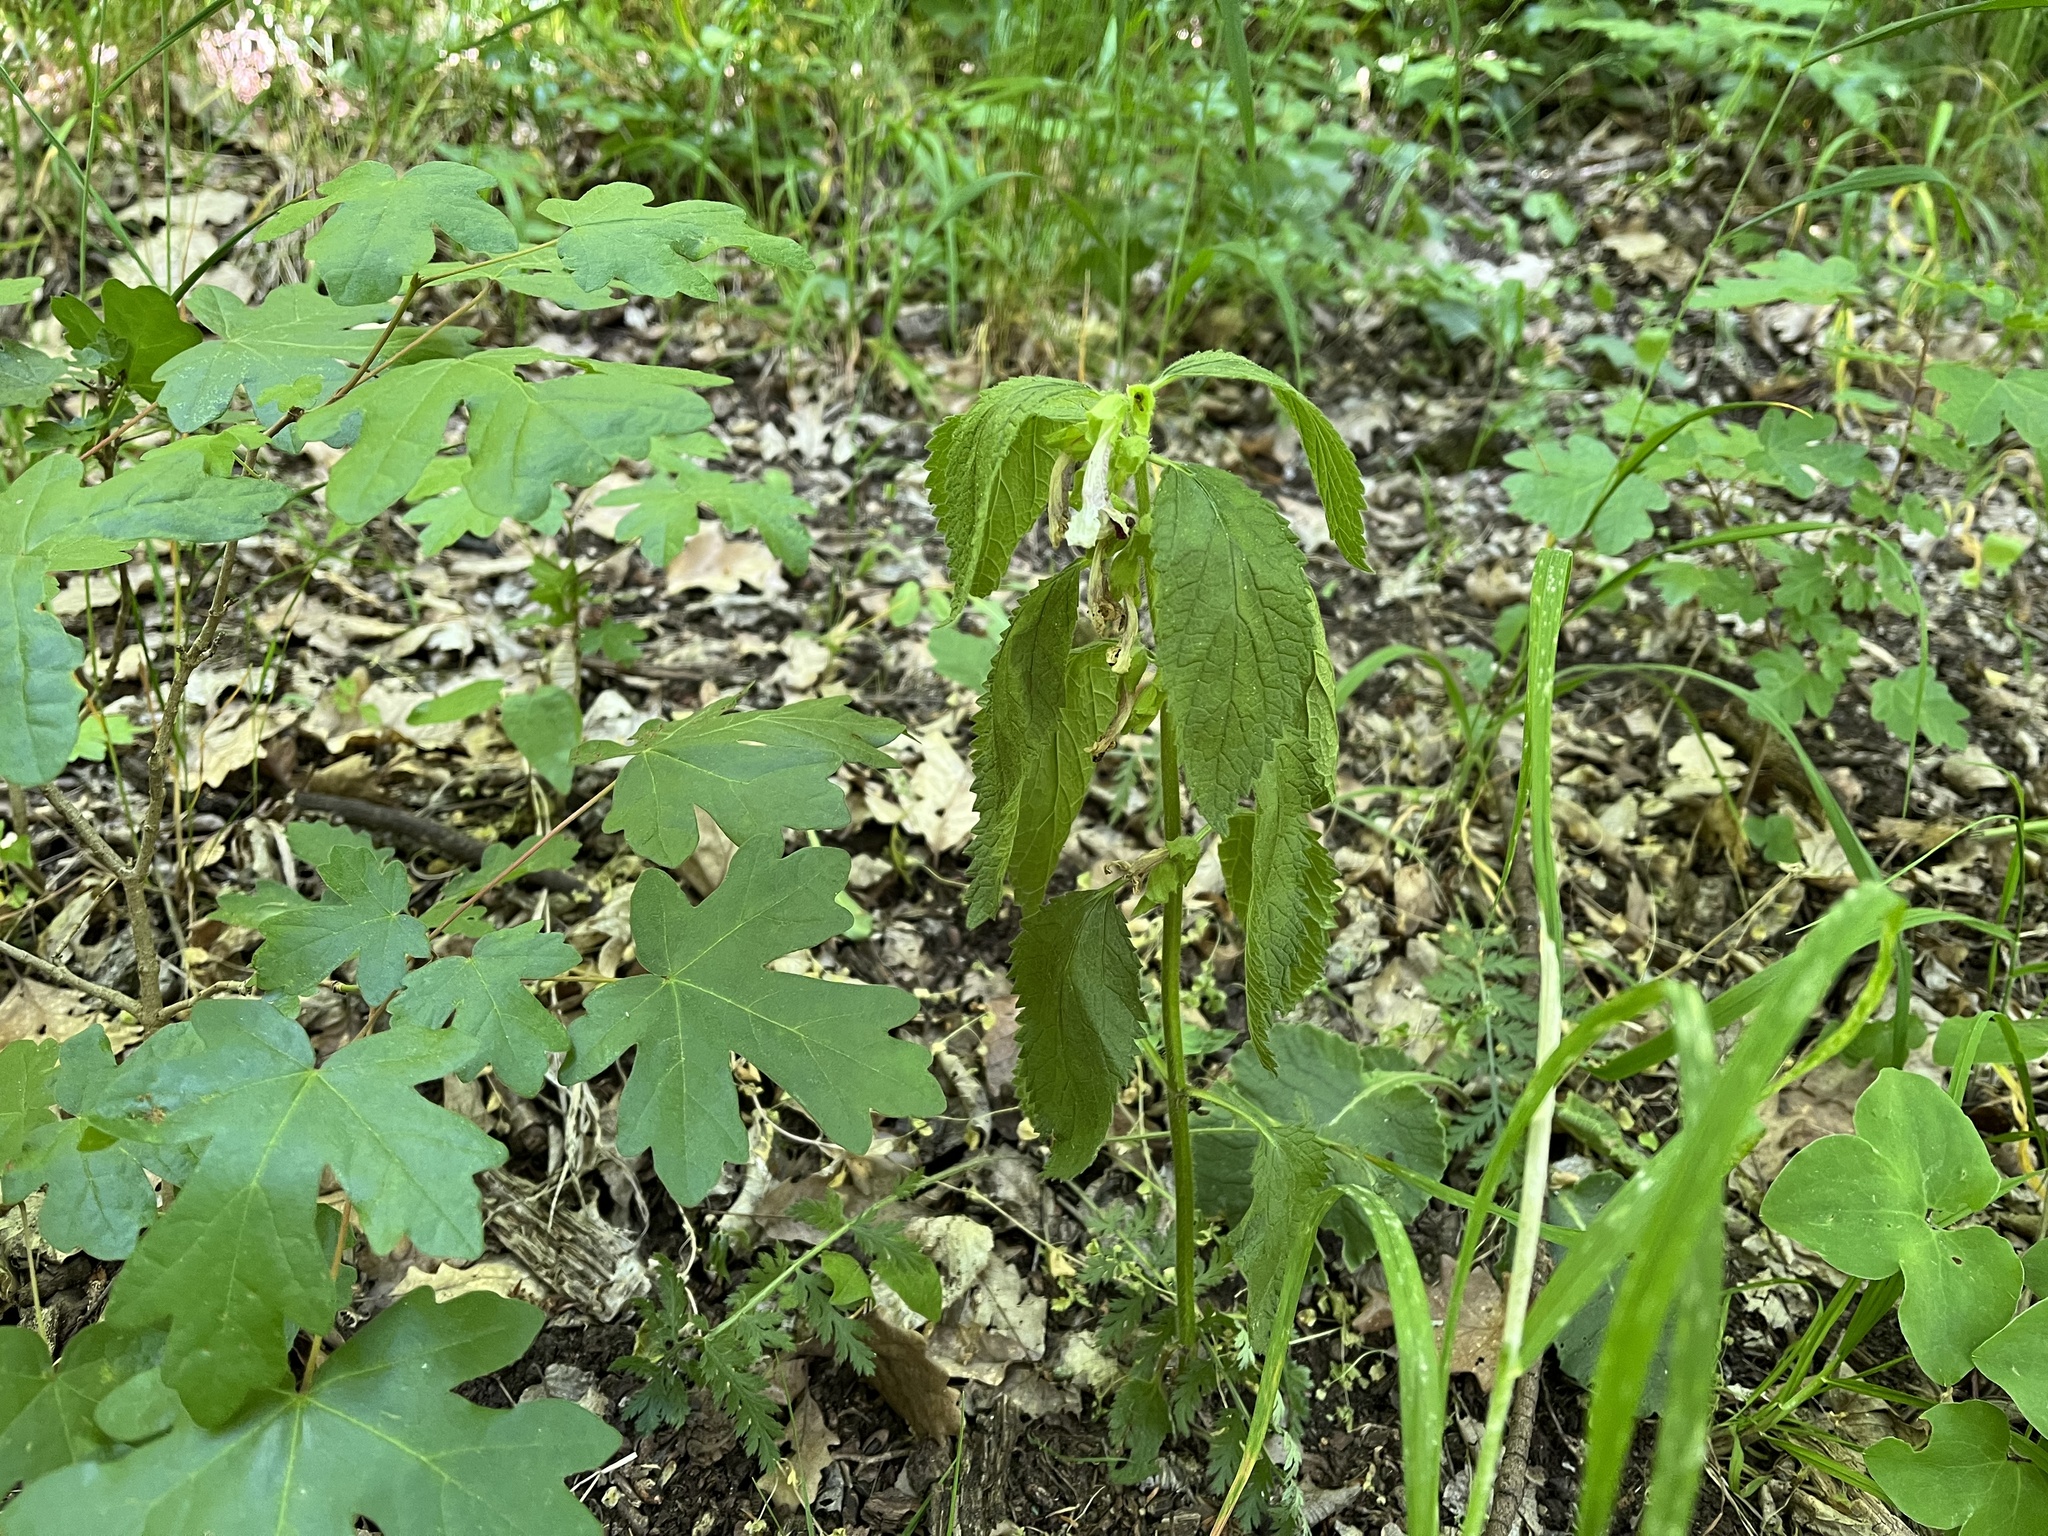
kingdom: Plantae
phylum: Tracheophyta
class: Magnoliopsida
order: Lamiales
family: Lamiaceae
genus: Melittis
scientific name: Melittis melissophyllum
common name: Bastard balm
